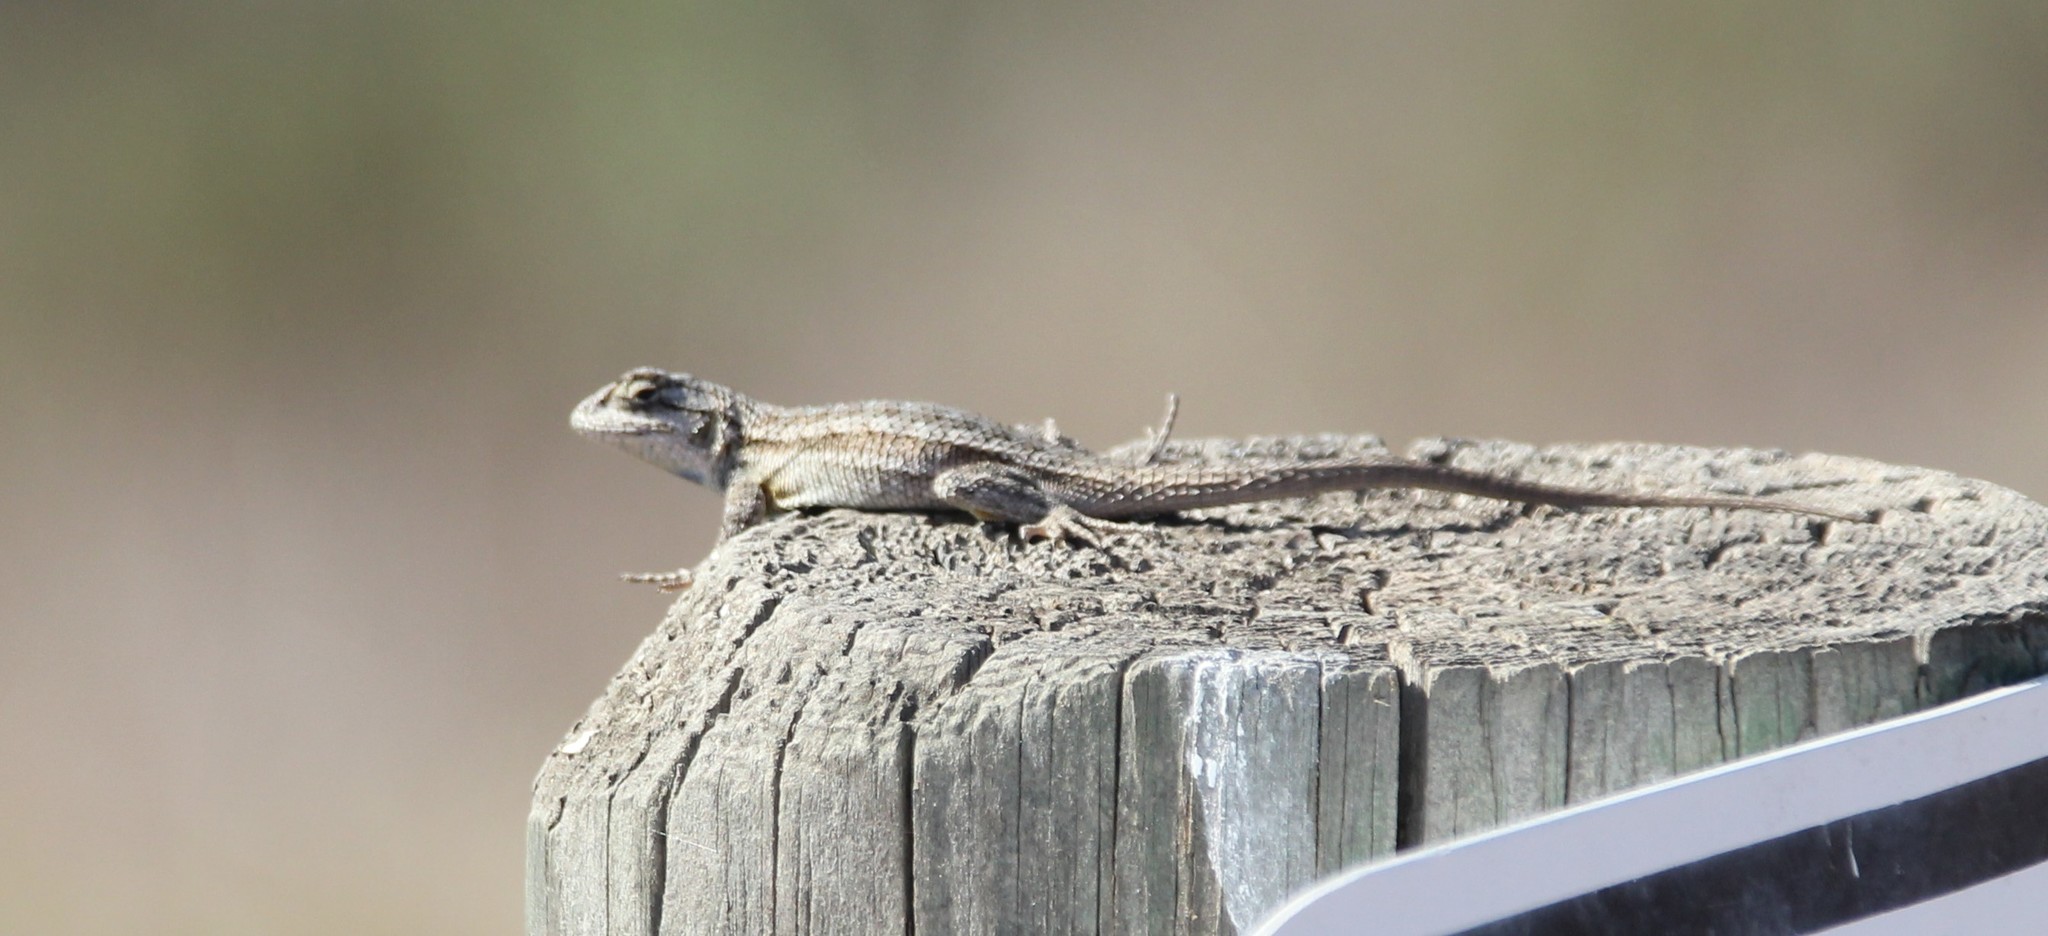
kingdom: Animalia
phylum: Chordata
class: Squamata
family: Phrynosomatidae
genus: Sceloporus
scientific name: Sceloporus occidentalis
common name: Western fence lizard
